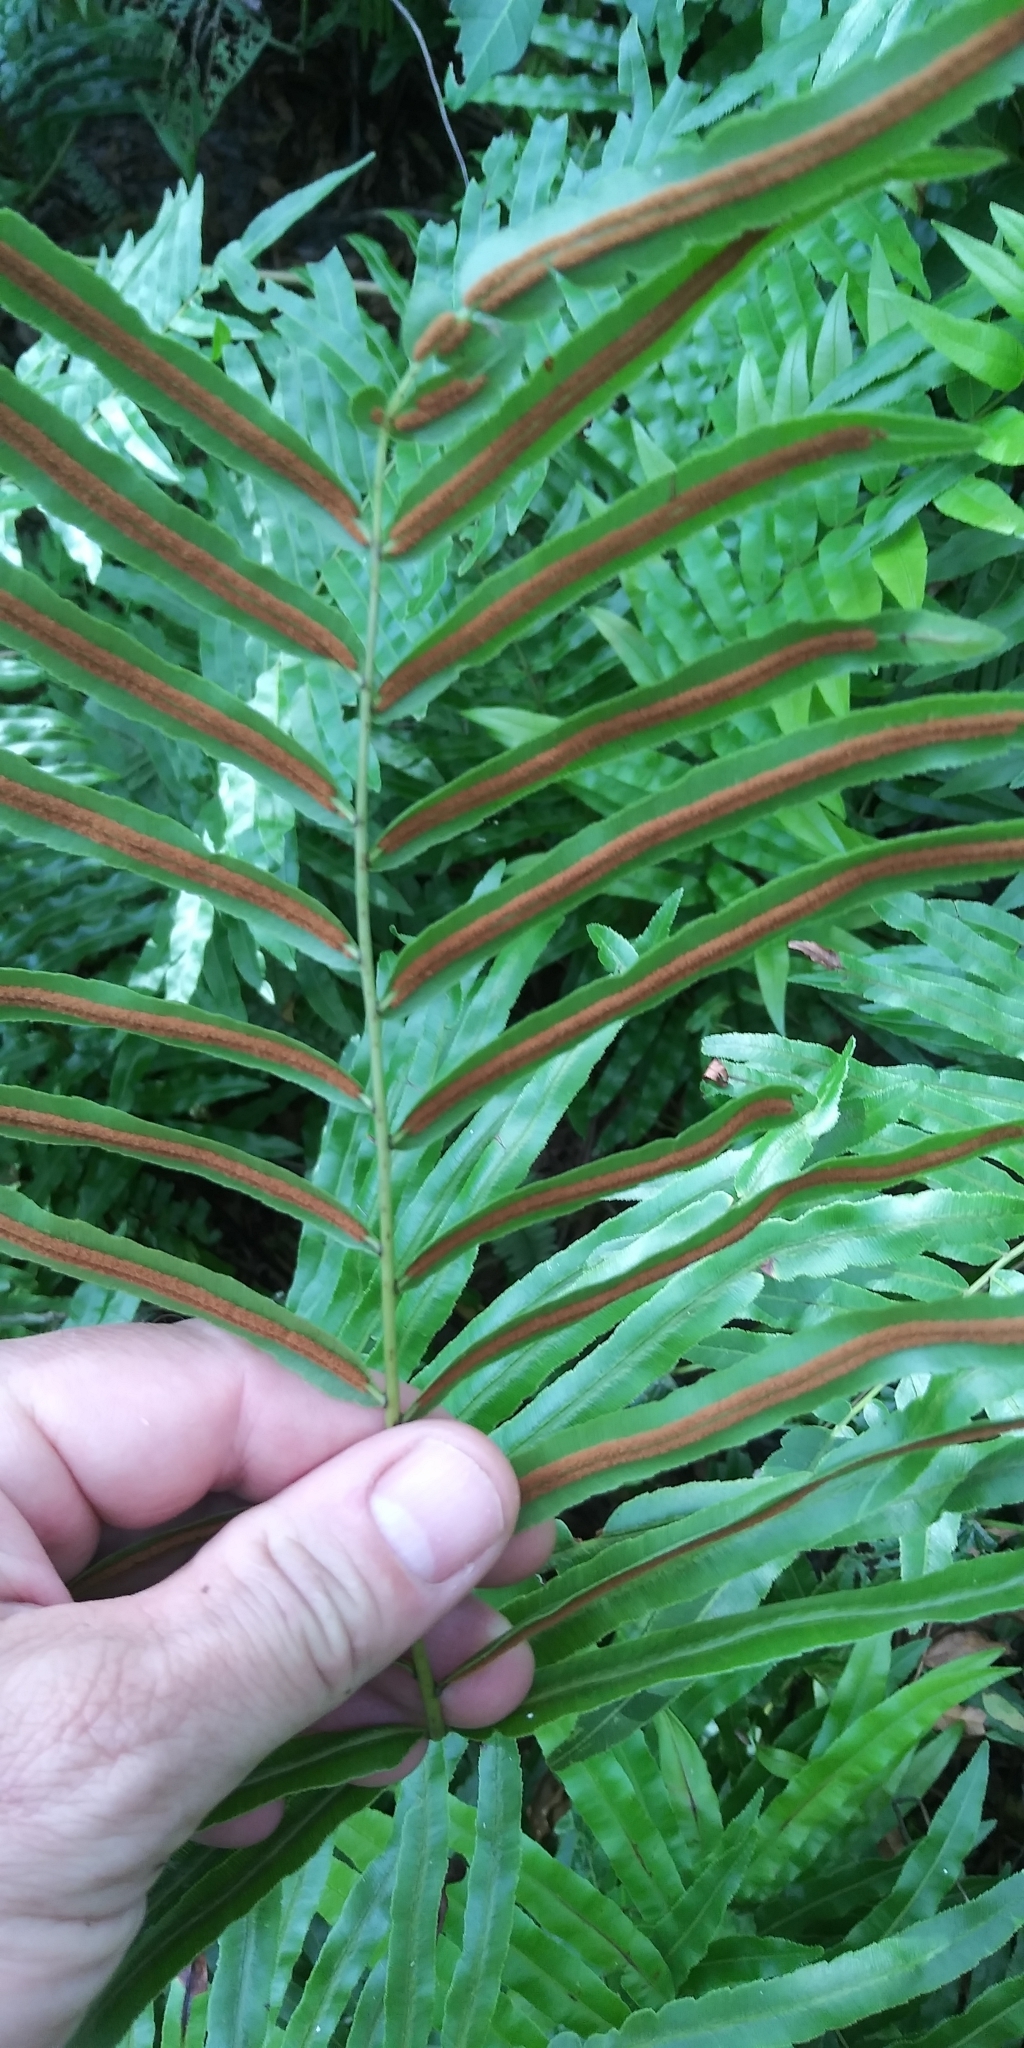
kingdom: Plantae
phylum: Tracheophyta
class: Polypodiopsida
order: Polypodiales
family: Blechnaceae
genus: Telmatoblechnum
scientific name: Telmatoblechnum serrulatum
